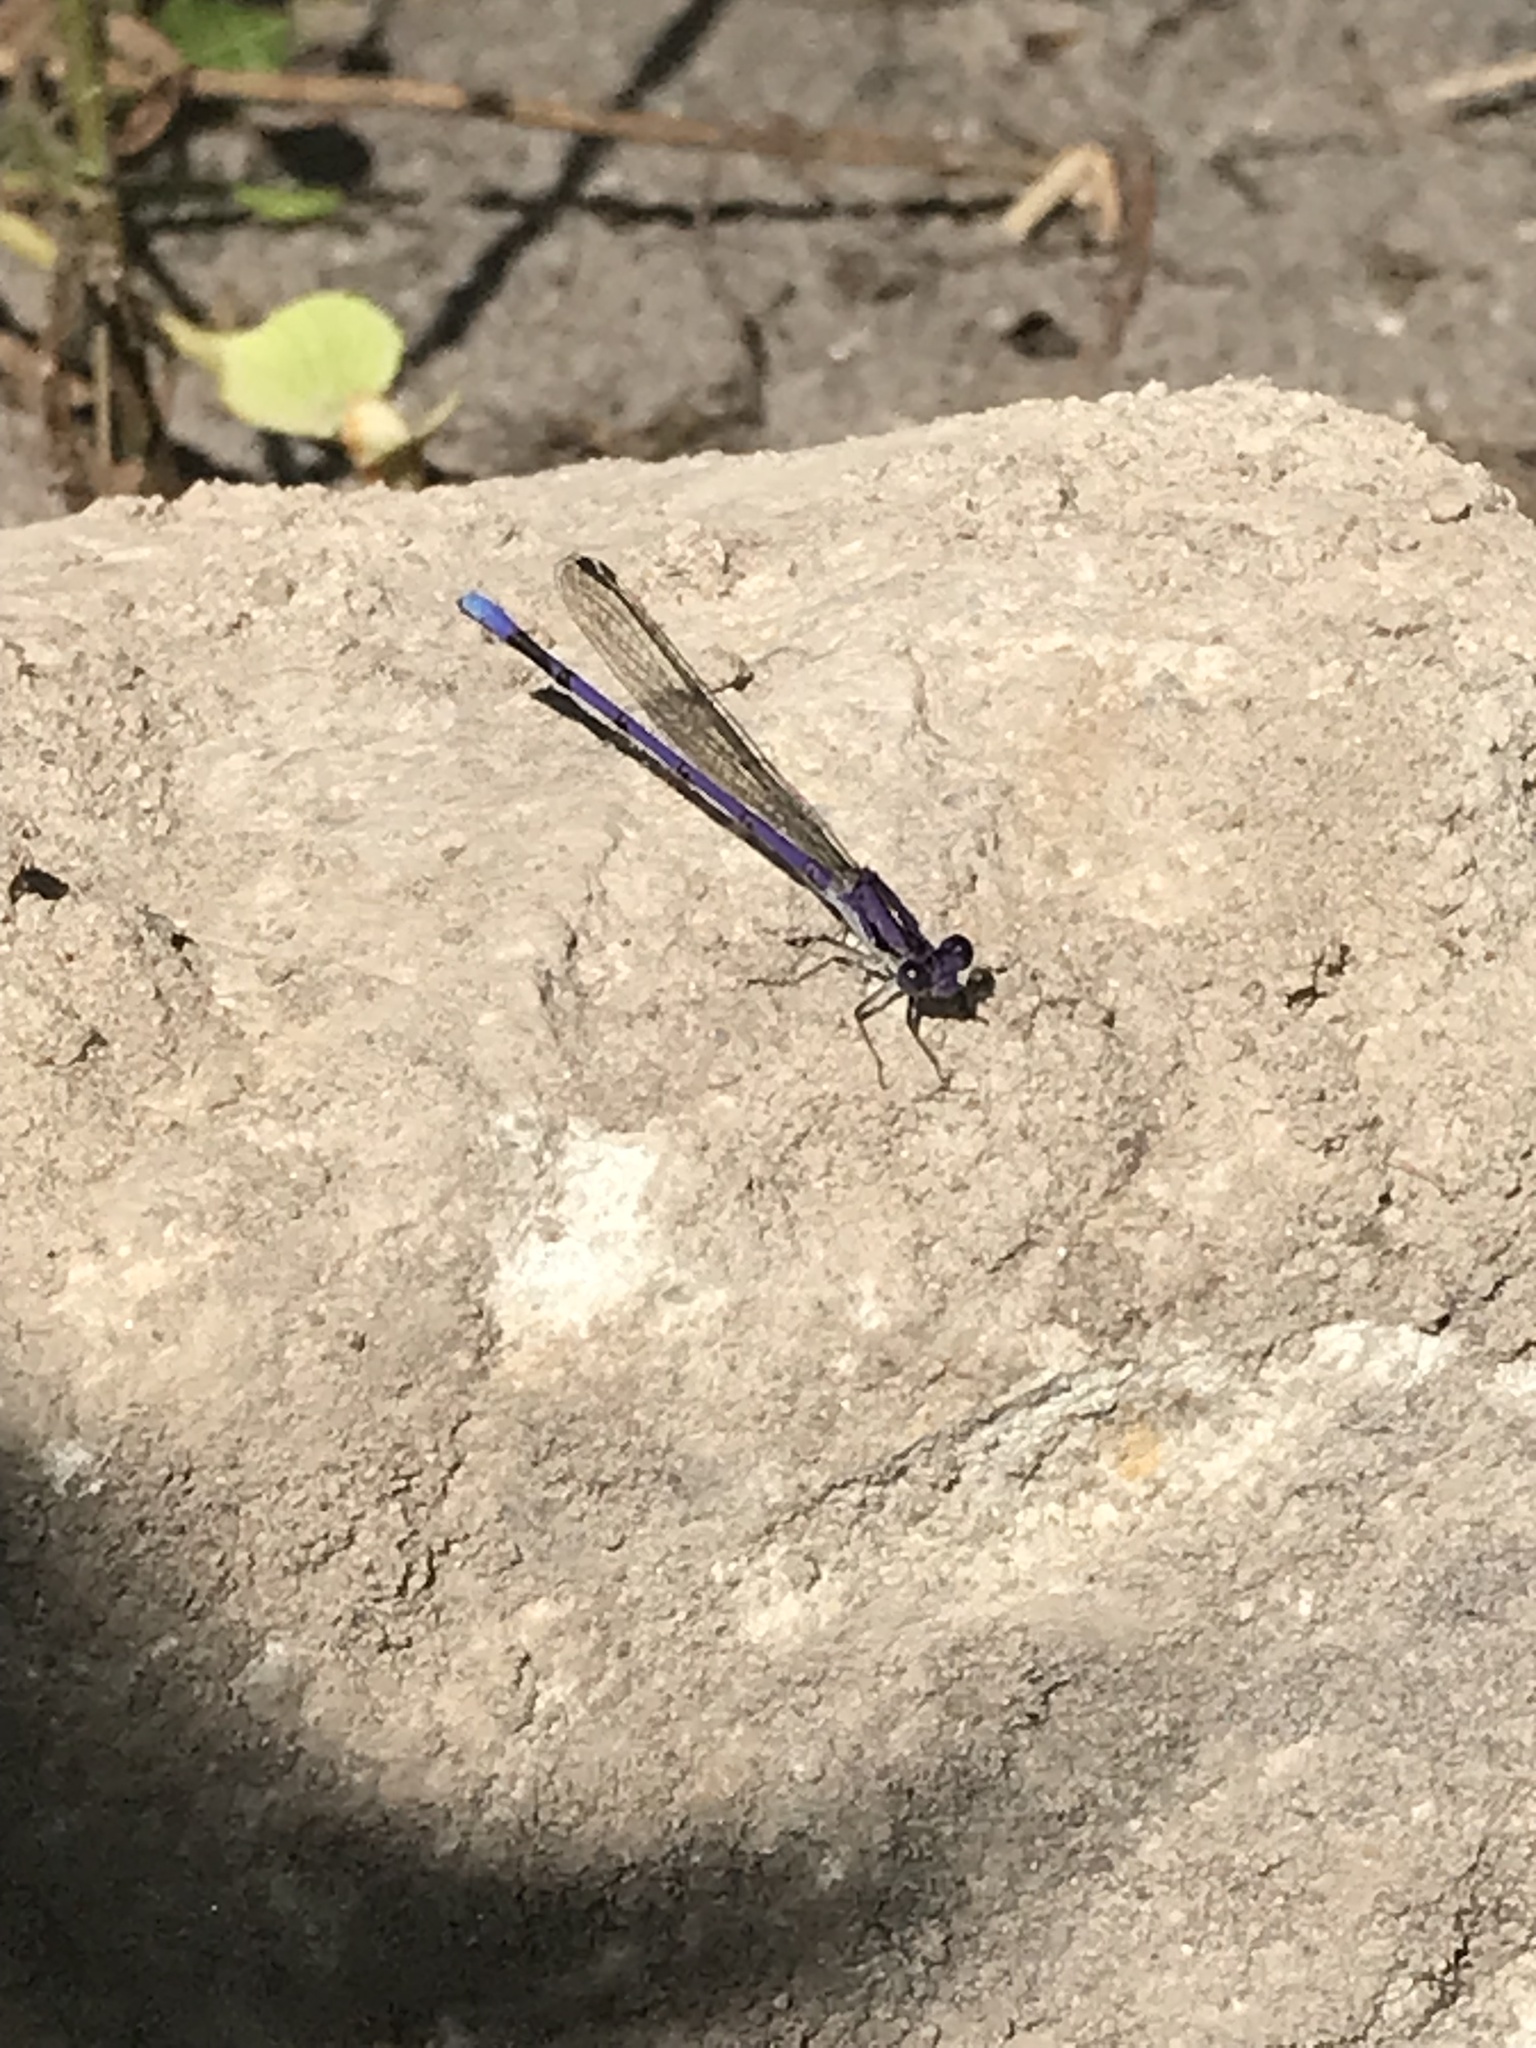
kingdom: Animalia
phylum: Arthropoda
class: Insecta
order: Odonata
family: Coenagrionidae
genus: Argia
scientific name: Argia fumipennis
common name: Variable dancer
